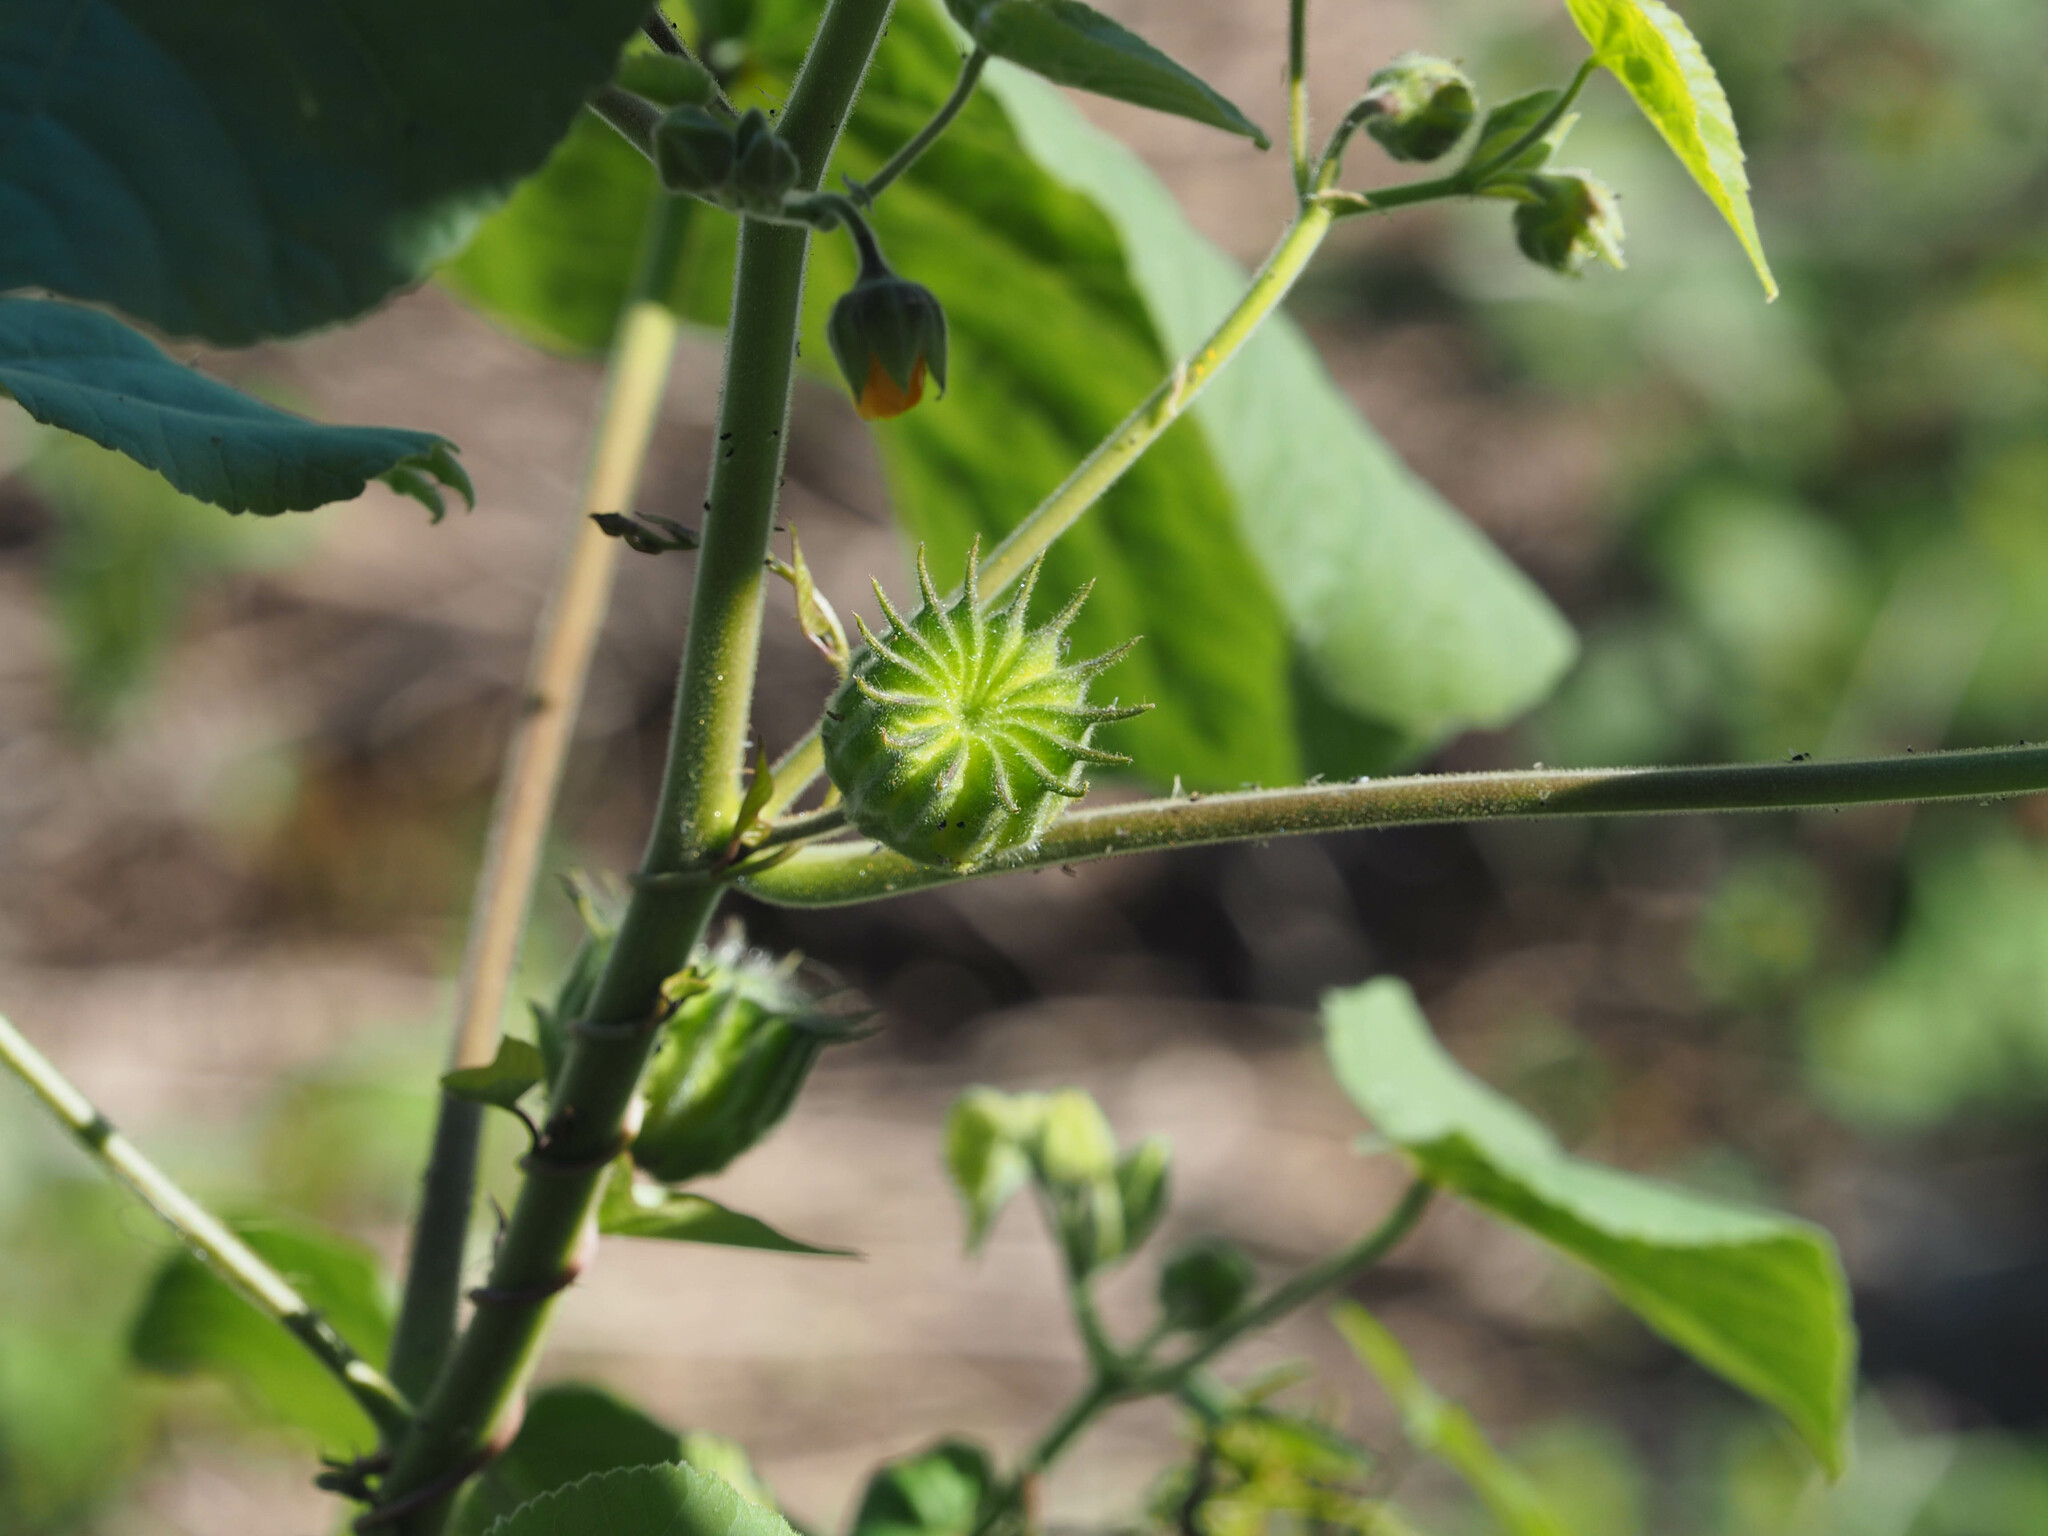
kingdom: Plantae
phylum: Tracheophyta
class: Magnoliopsida
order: Malvales
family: Malvaceae
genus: Abutilon
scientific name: Abutilon theophrasti
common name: Velvetleaf
